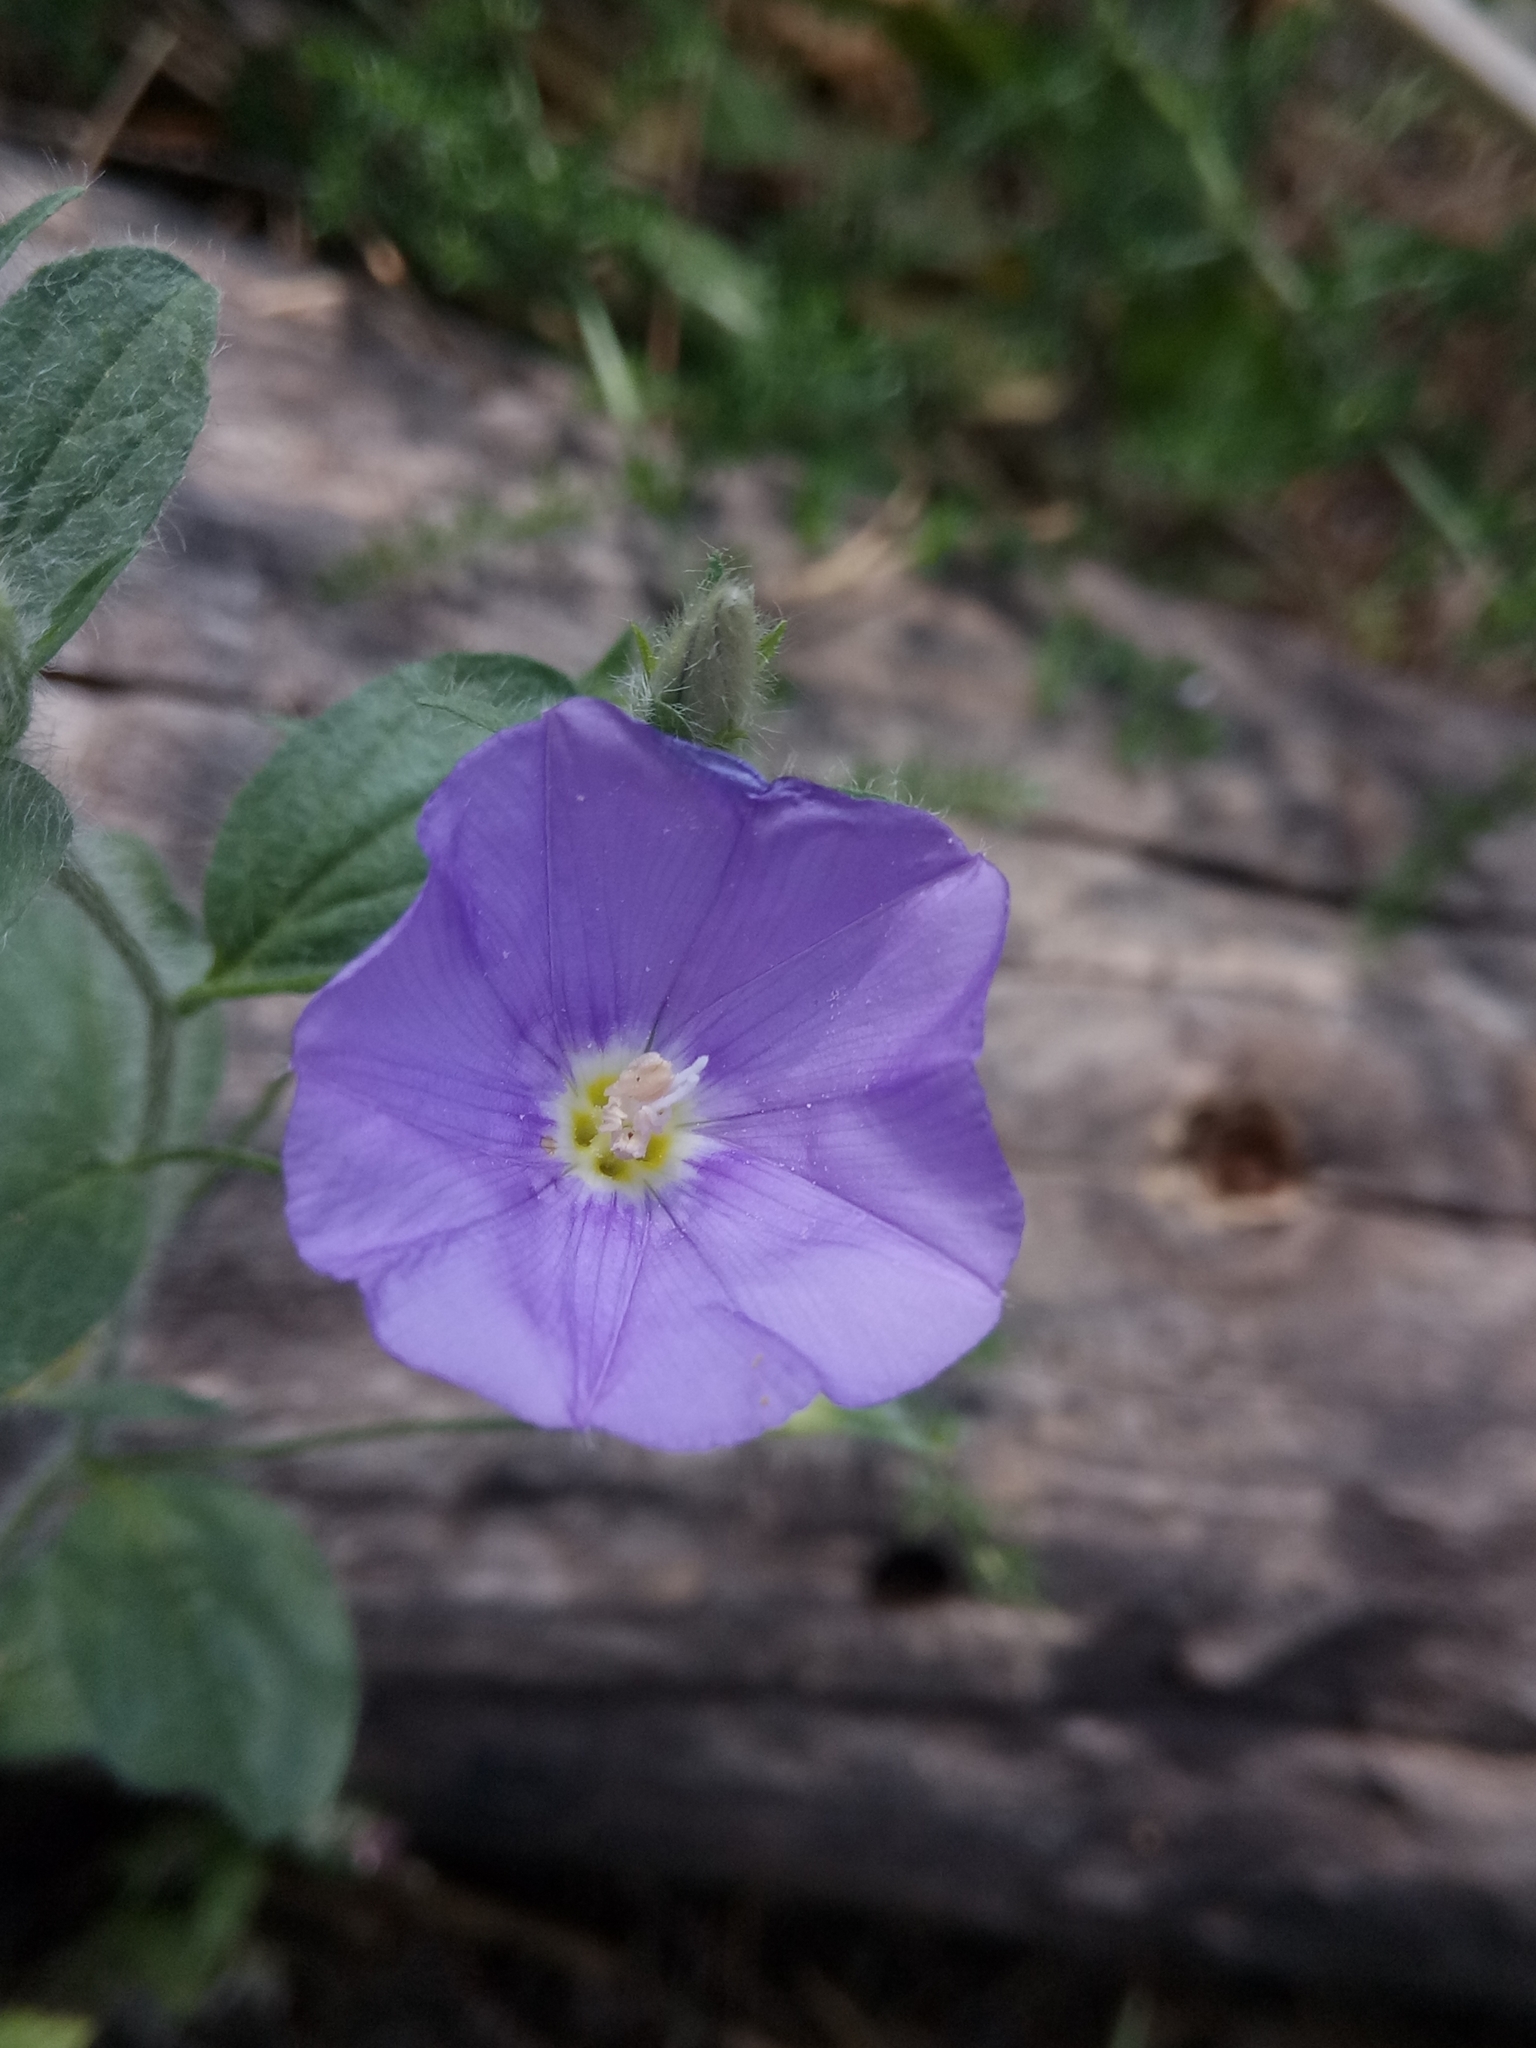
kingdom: Plantae
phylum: Tracheophyta
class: Magnoliopsida
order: Solanales
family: Convolvulaceae
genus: Convolvulus
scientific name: Convolvulus sabatius
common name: Ground blue-convolvulus
